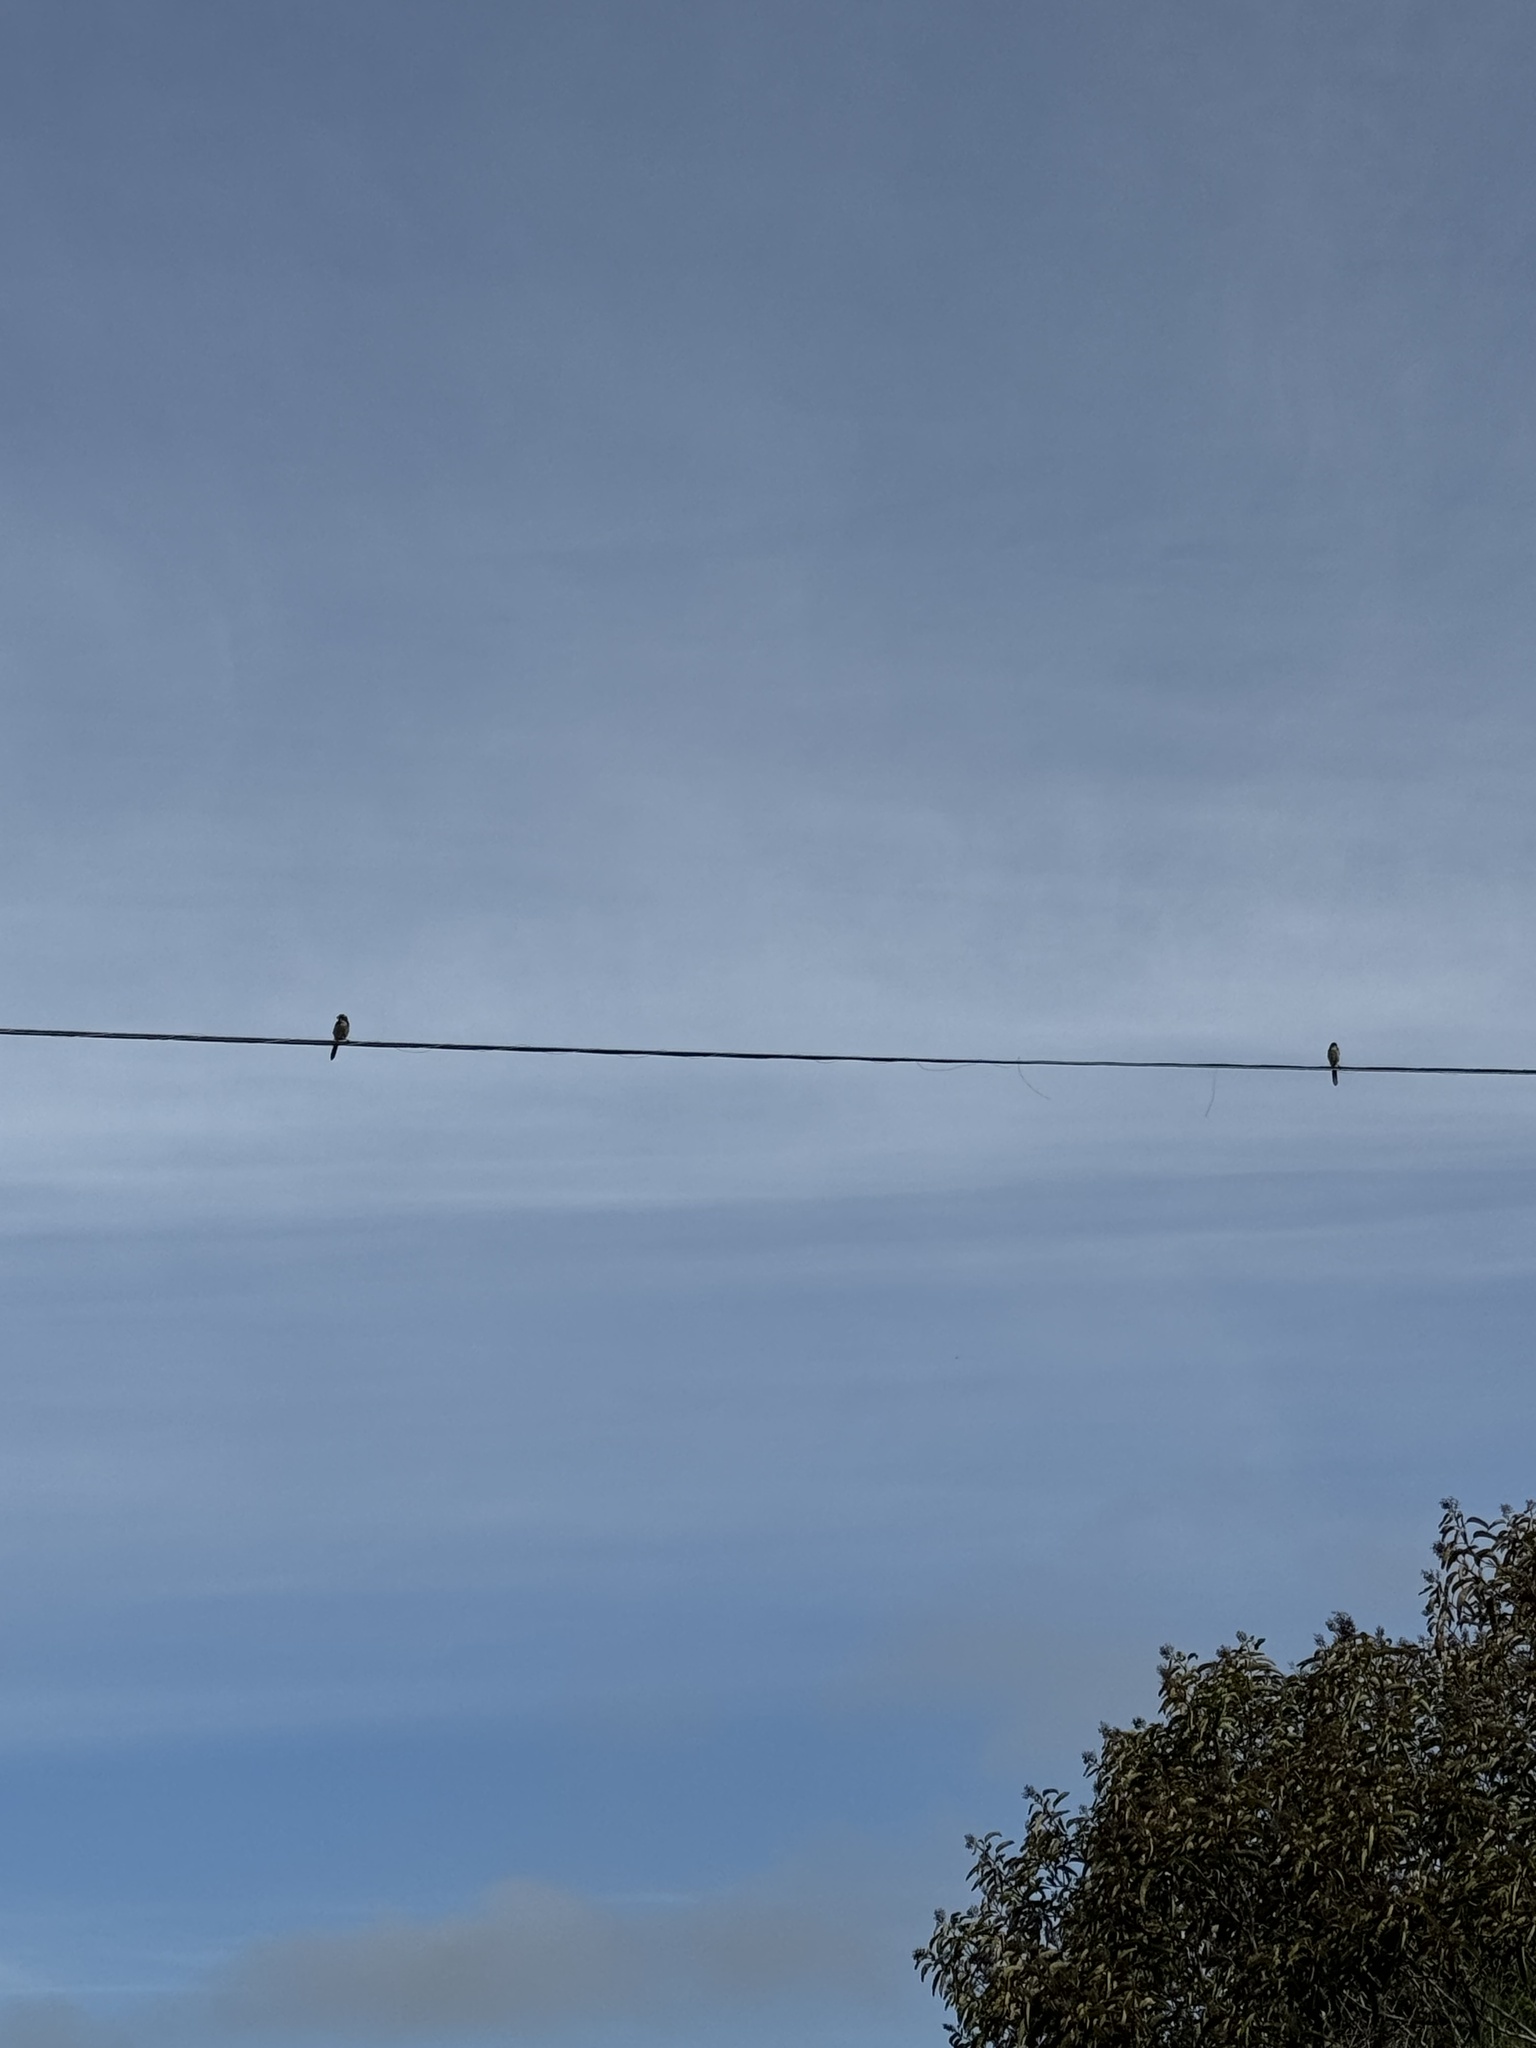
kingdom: Animalia
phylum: Chordata
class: Aves
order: Passeriformes
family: Corvidae
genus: Aphelocoma
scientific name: Aphelocoma californica
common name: California scrub-jay
